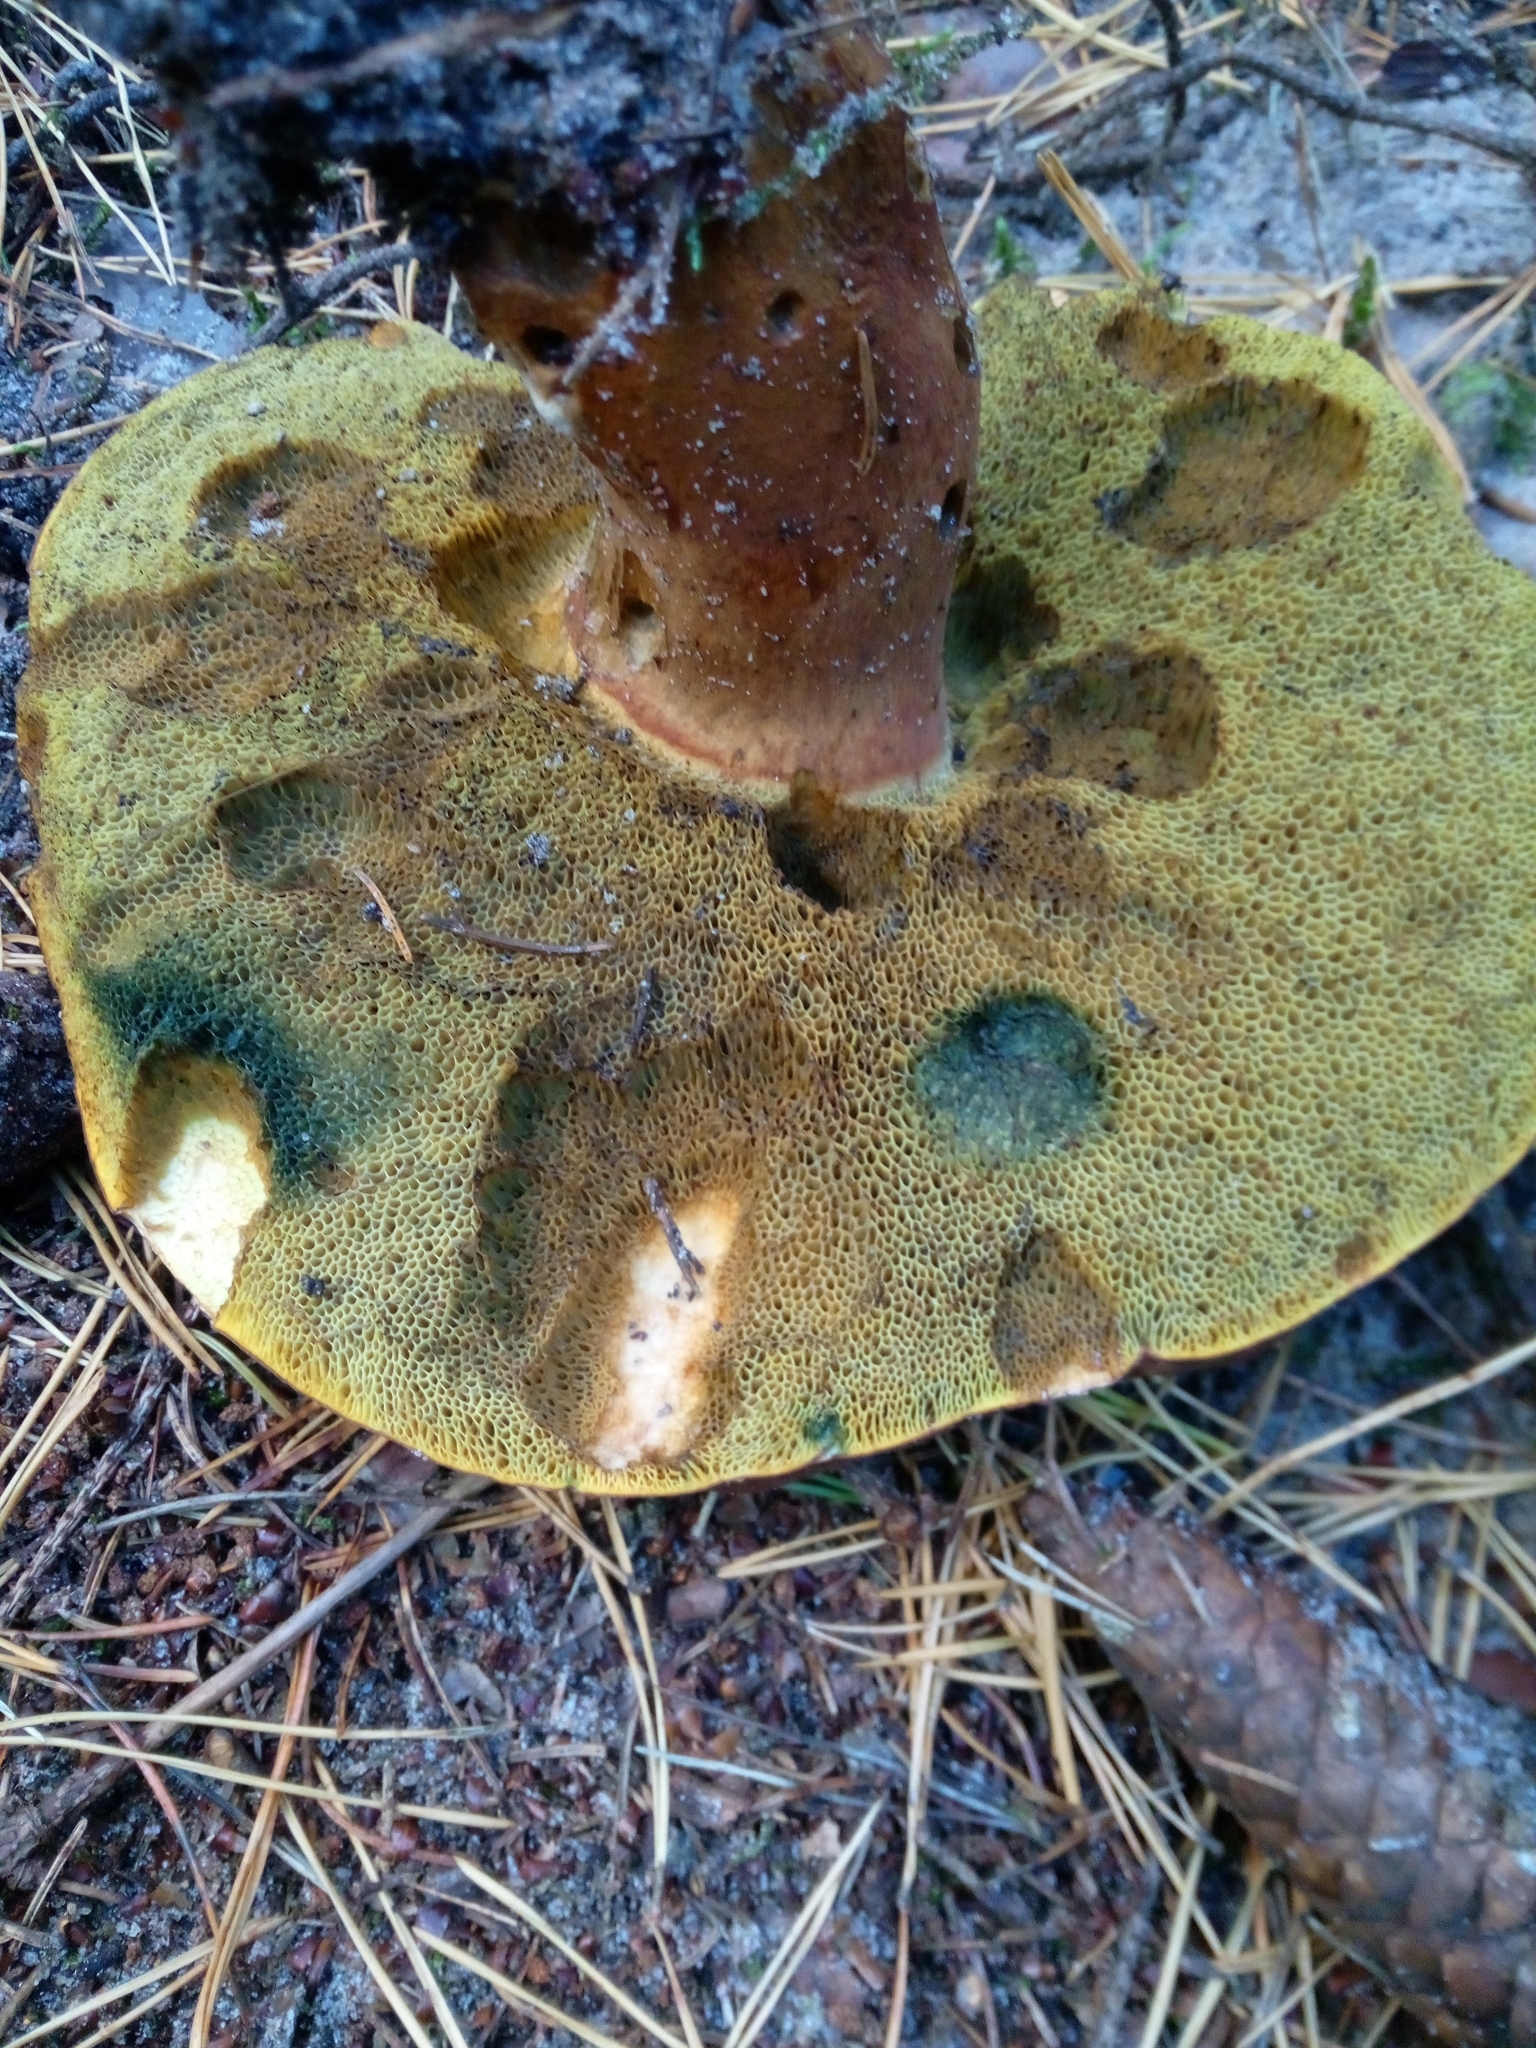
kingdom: Fungi
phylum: Basidiomycota
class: Agaricomycetes
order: Boletales
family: Boletaceae
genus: Imleria
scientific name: Imleria badia
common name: Bay bolete
